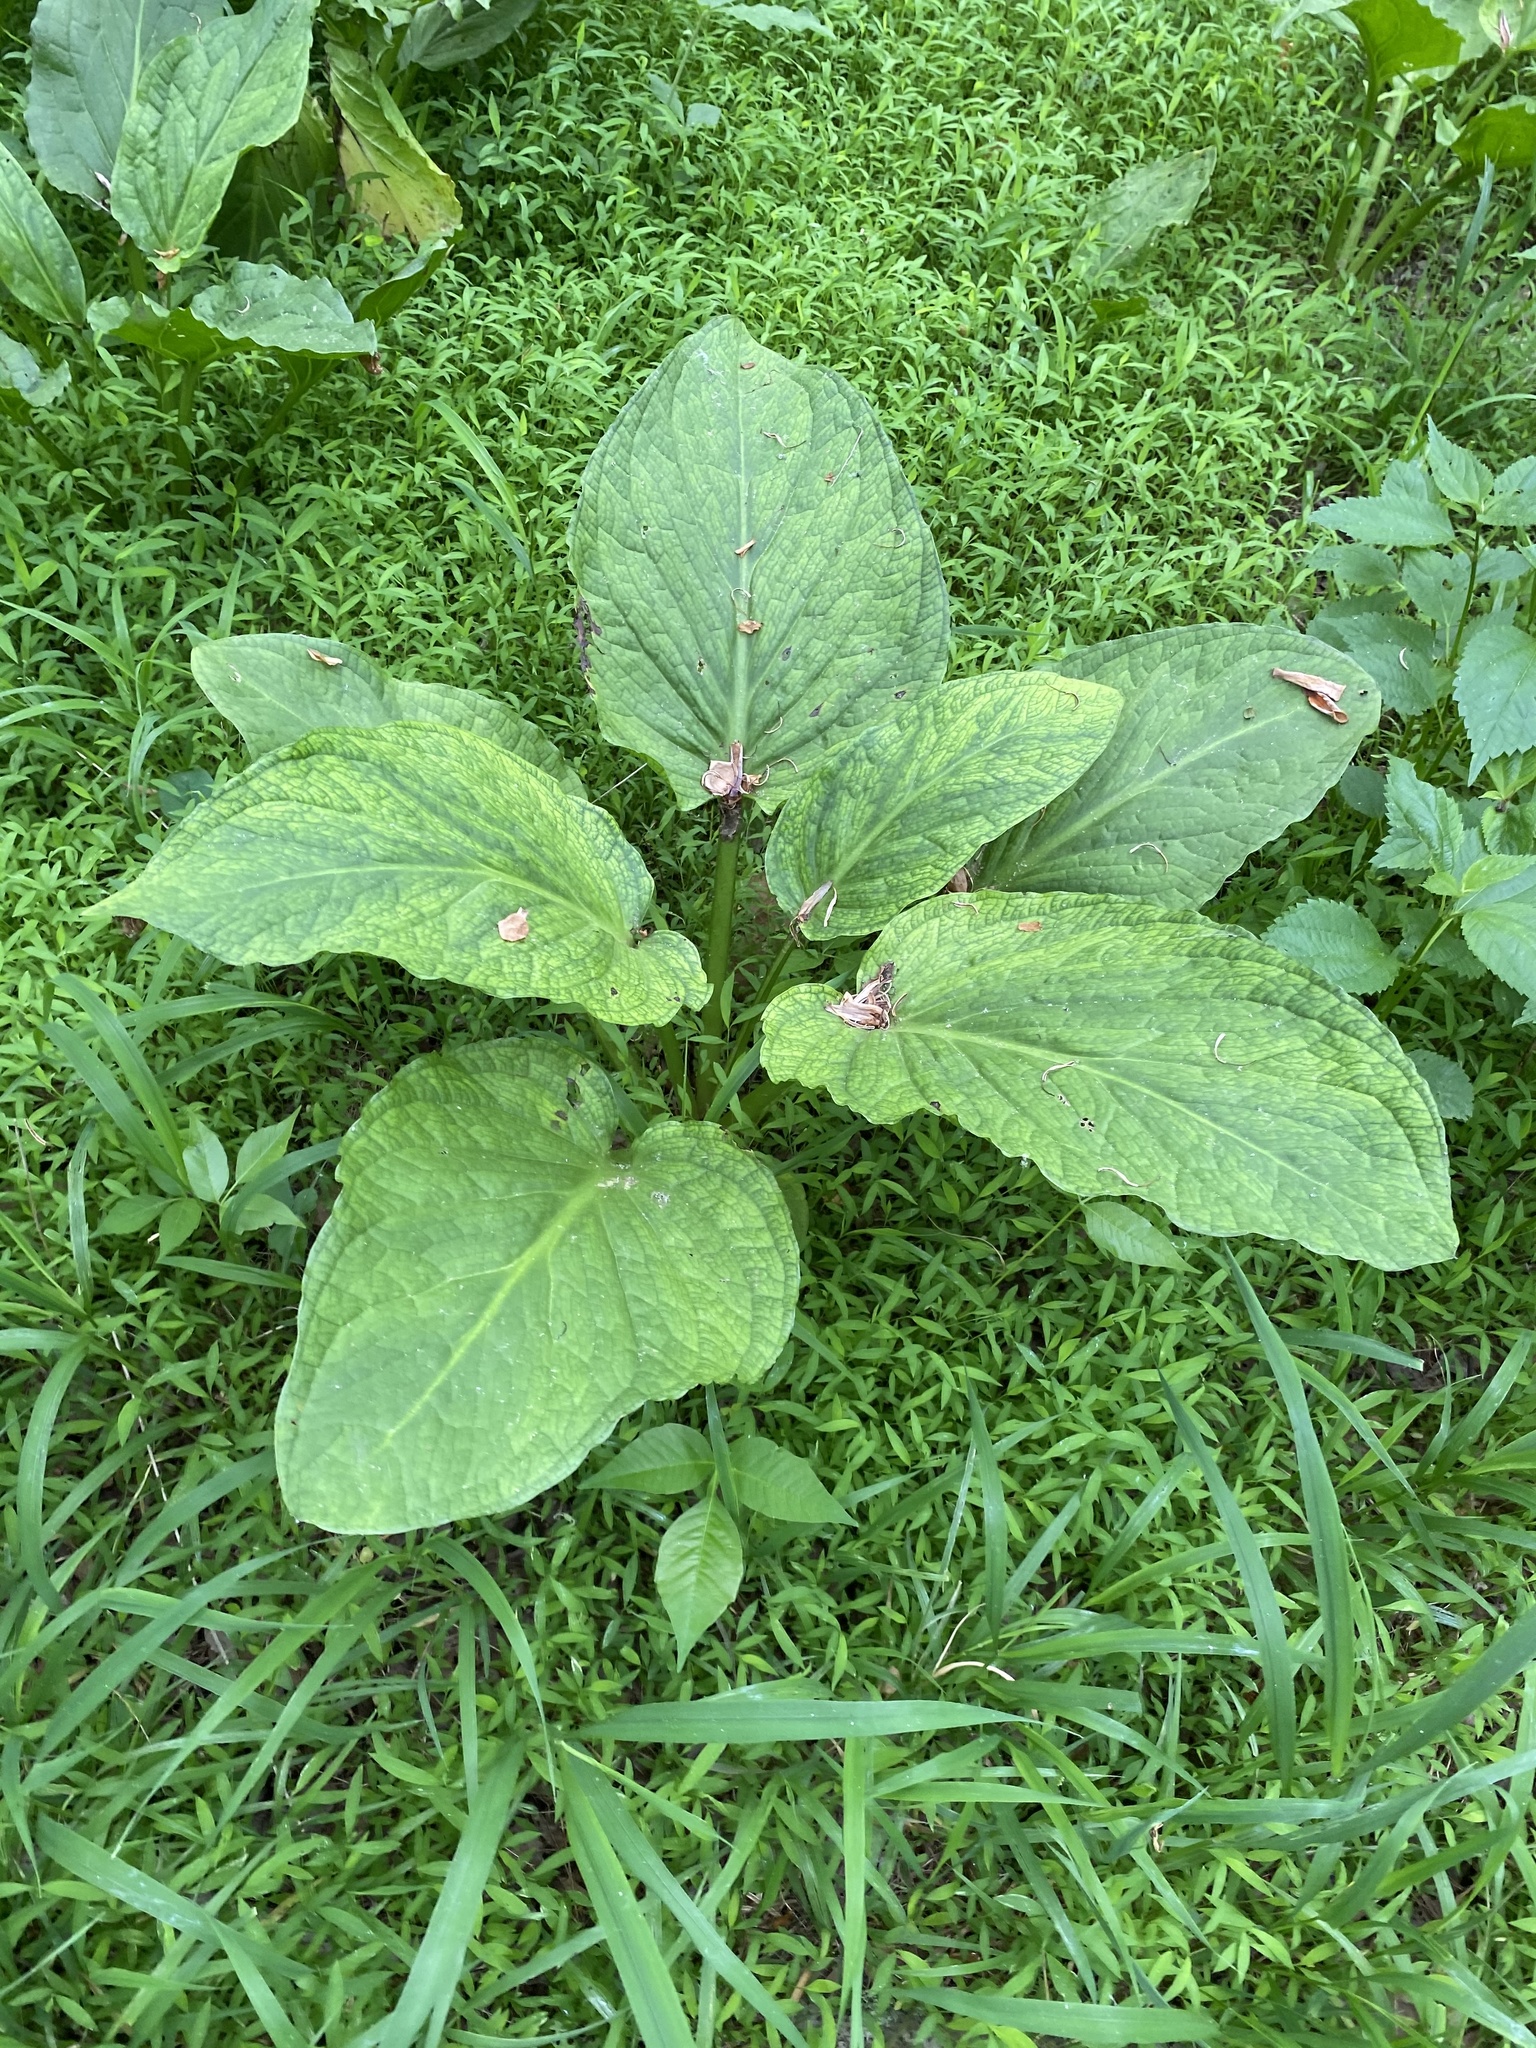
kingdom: Plantae
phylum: Tracheophyta
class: Liliopsida
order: Alismatales
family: Araceae
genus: Symplocarpus
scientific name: Symplocarpus foetidus
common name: Eastern skunk cabbage
